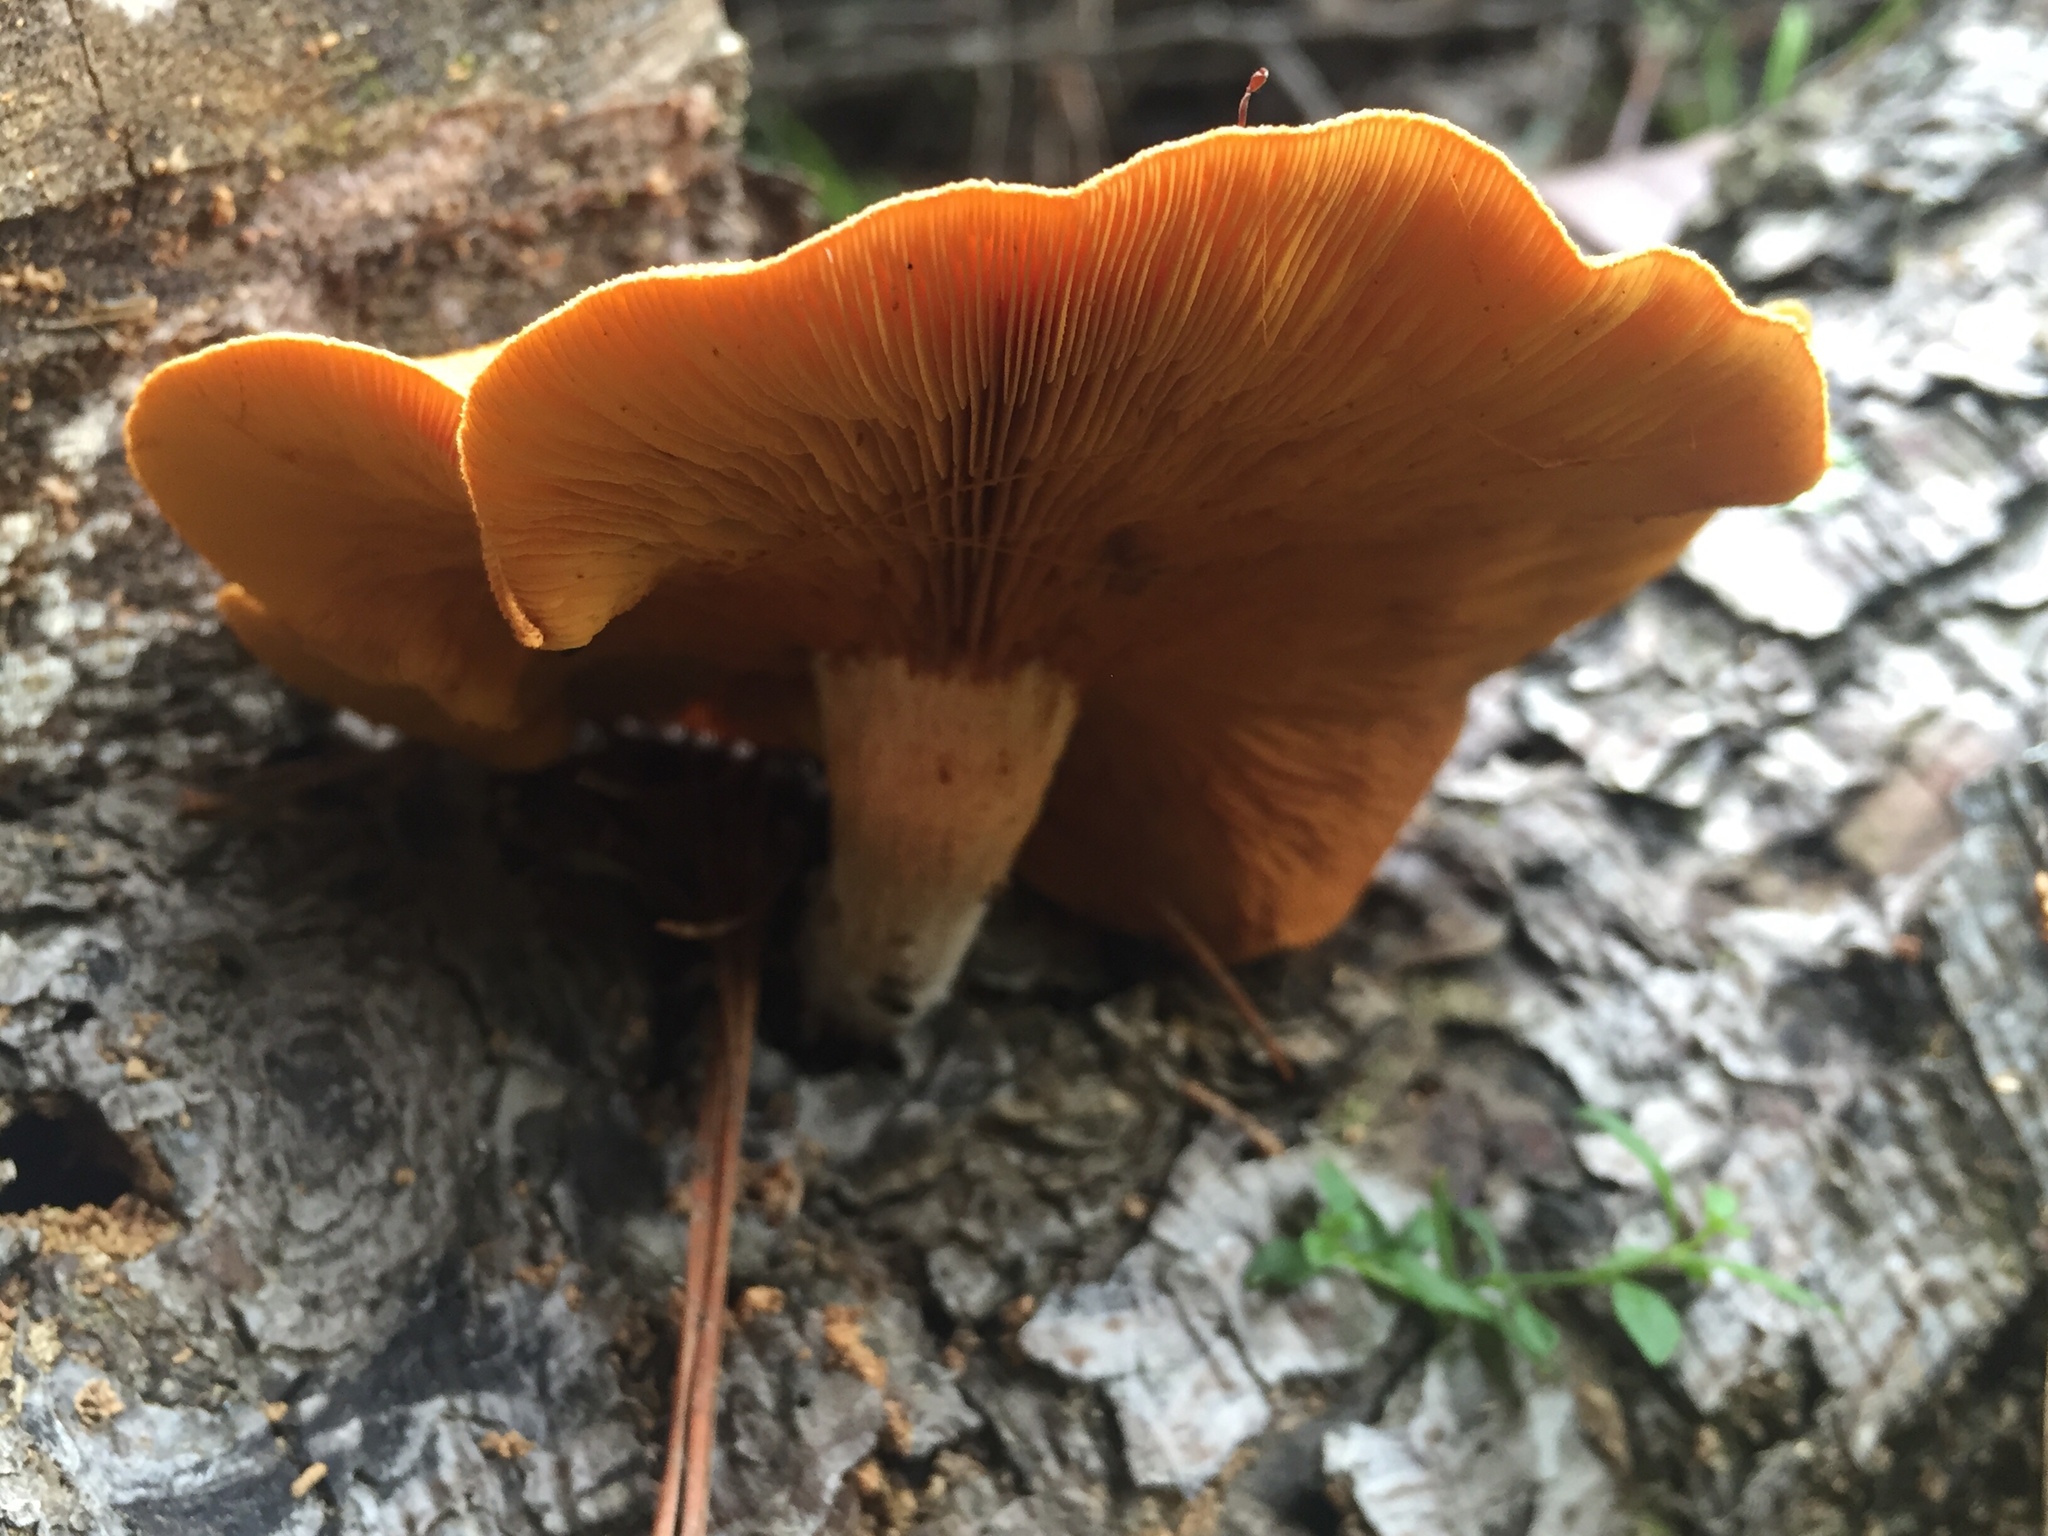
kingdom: Fungi
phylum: Basidiomycota
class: Agaricomycetes
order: Agaricales
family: Hymenogastraceae
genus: Gymnopilus
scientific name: Gymnopilus junonius
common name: Spectacular rustgill
